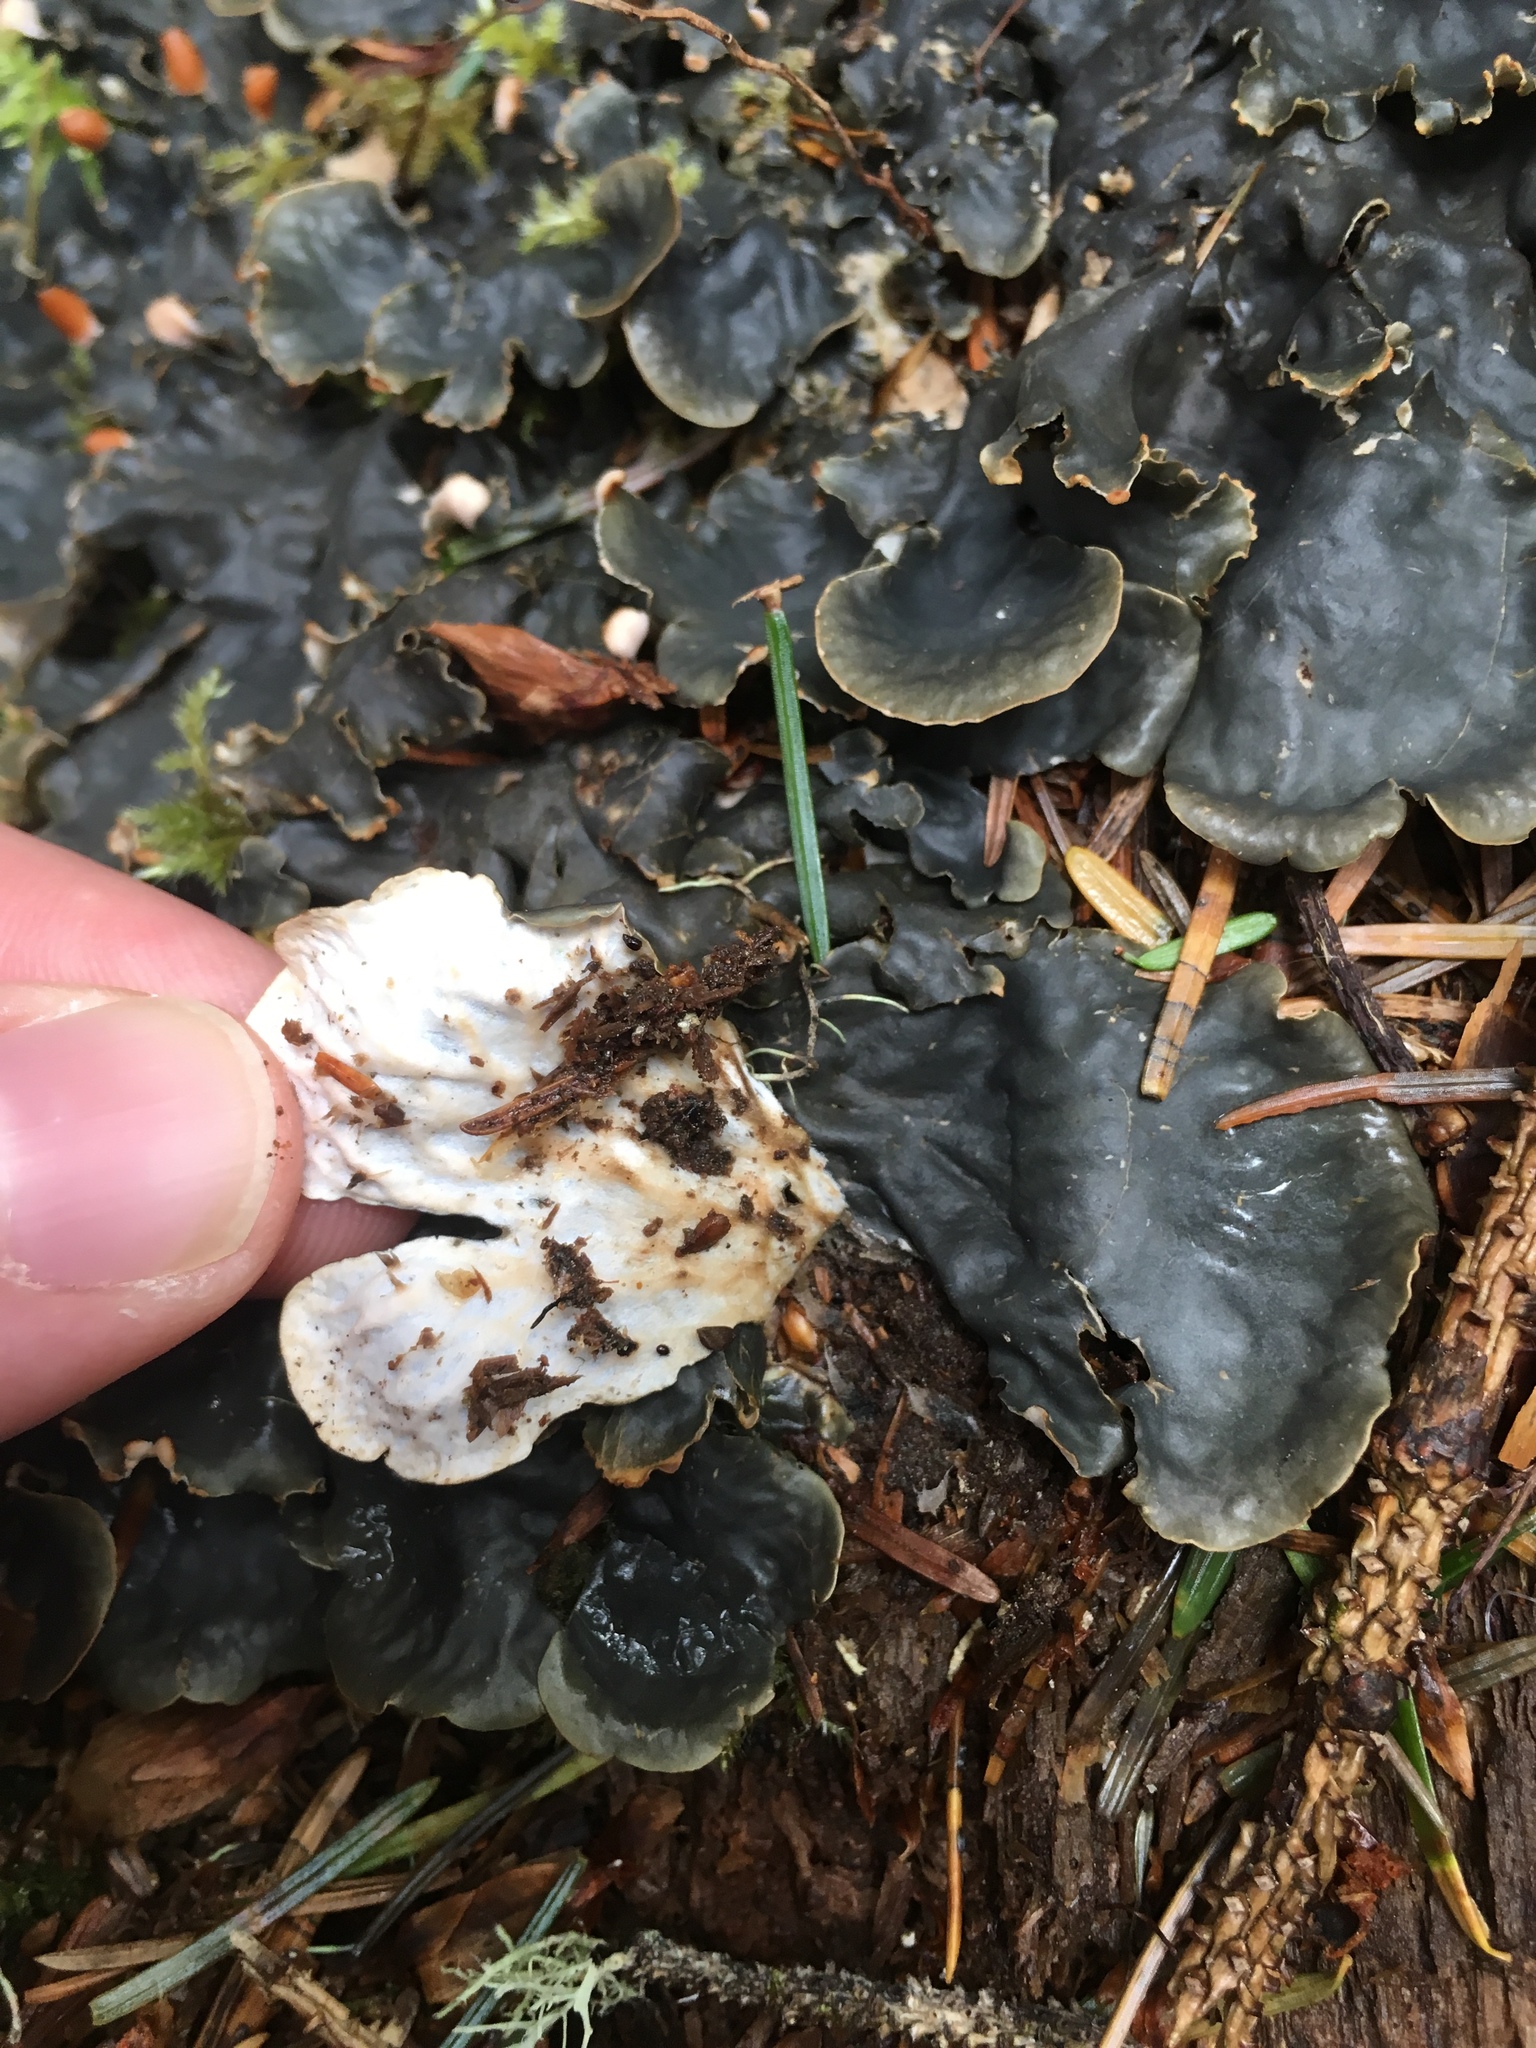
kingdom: Fungi
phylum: Ascomycota
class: Lecanoromycetes
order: Peltigerales
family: Peltigeraceae
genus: Peltigera
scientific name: Peltigera membranacea
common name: Membranous pelt lichen
